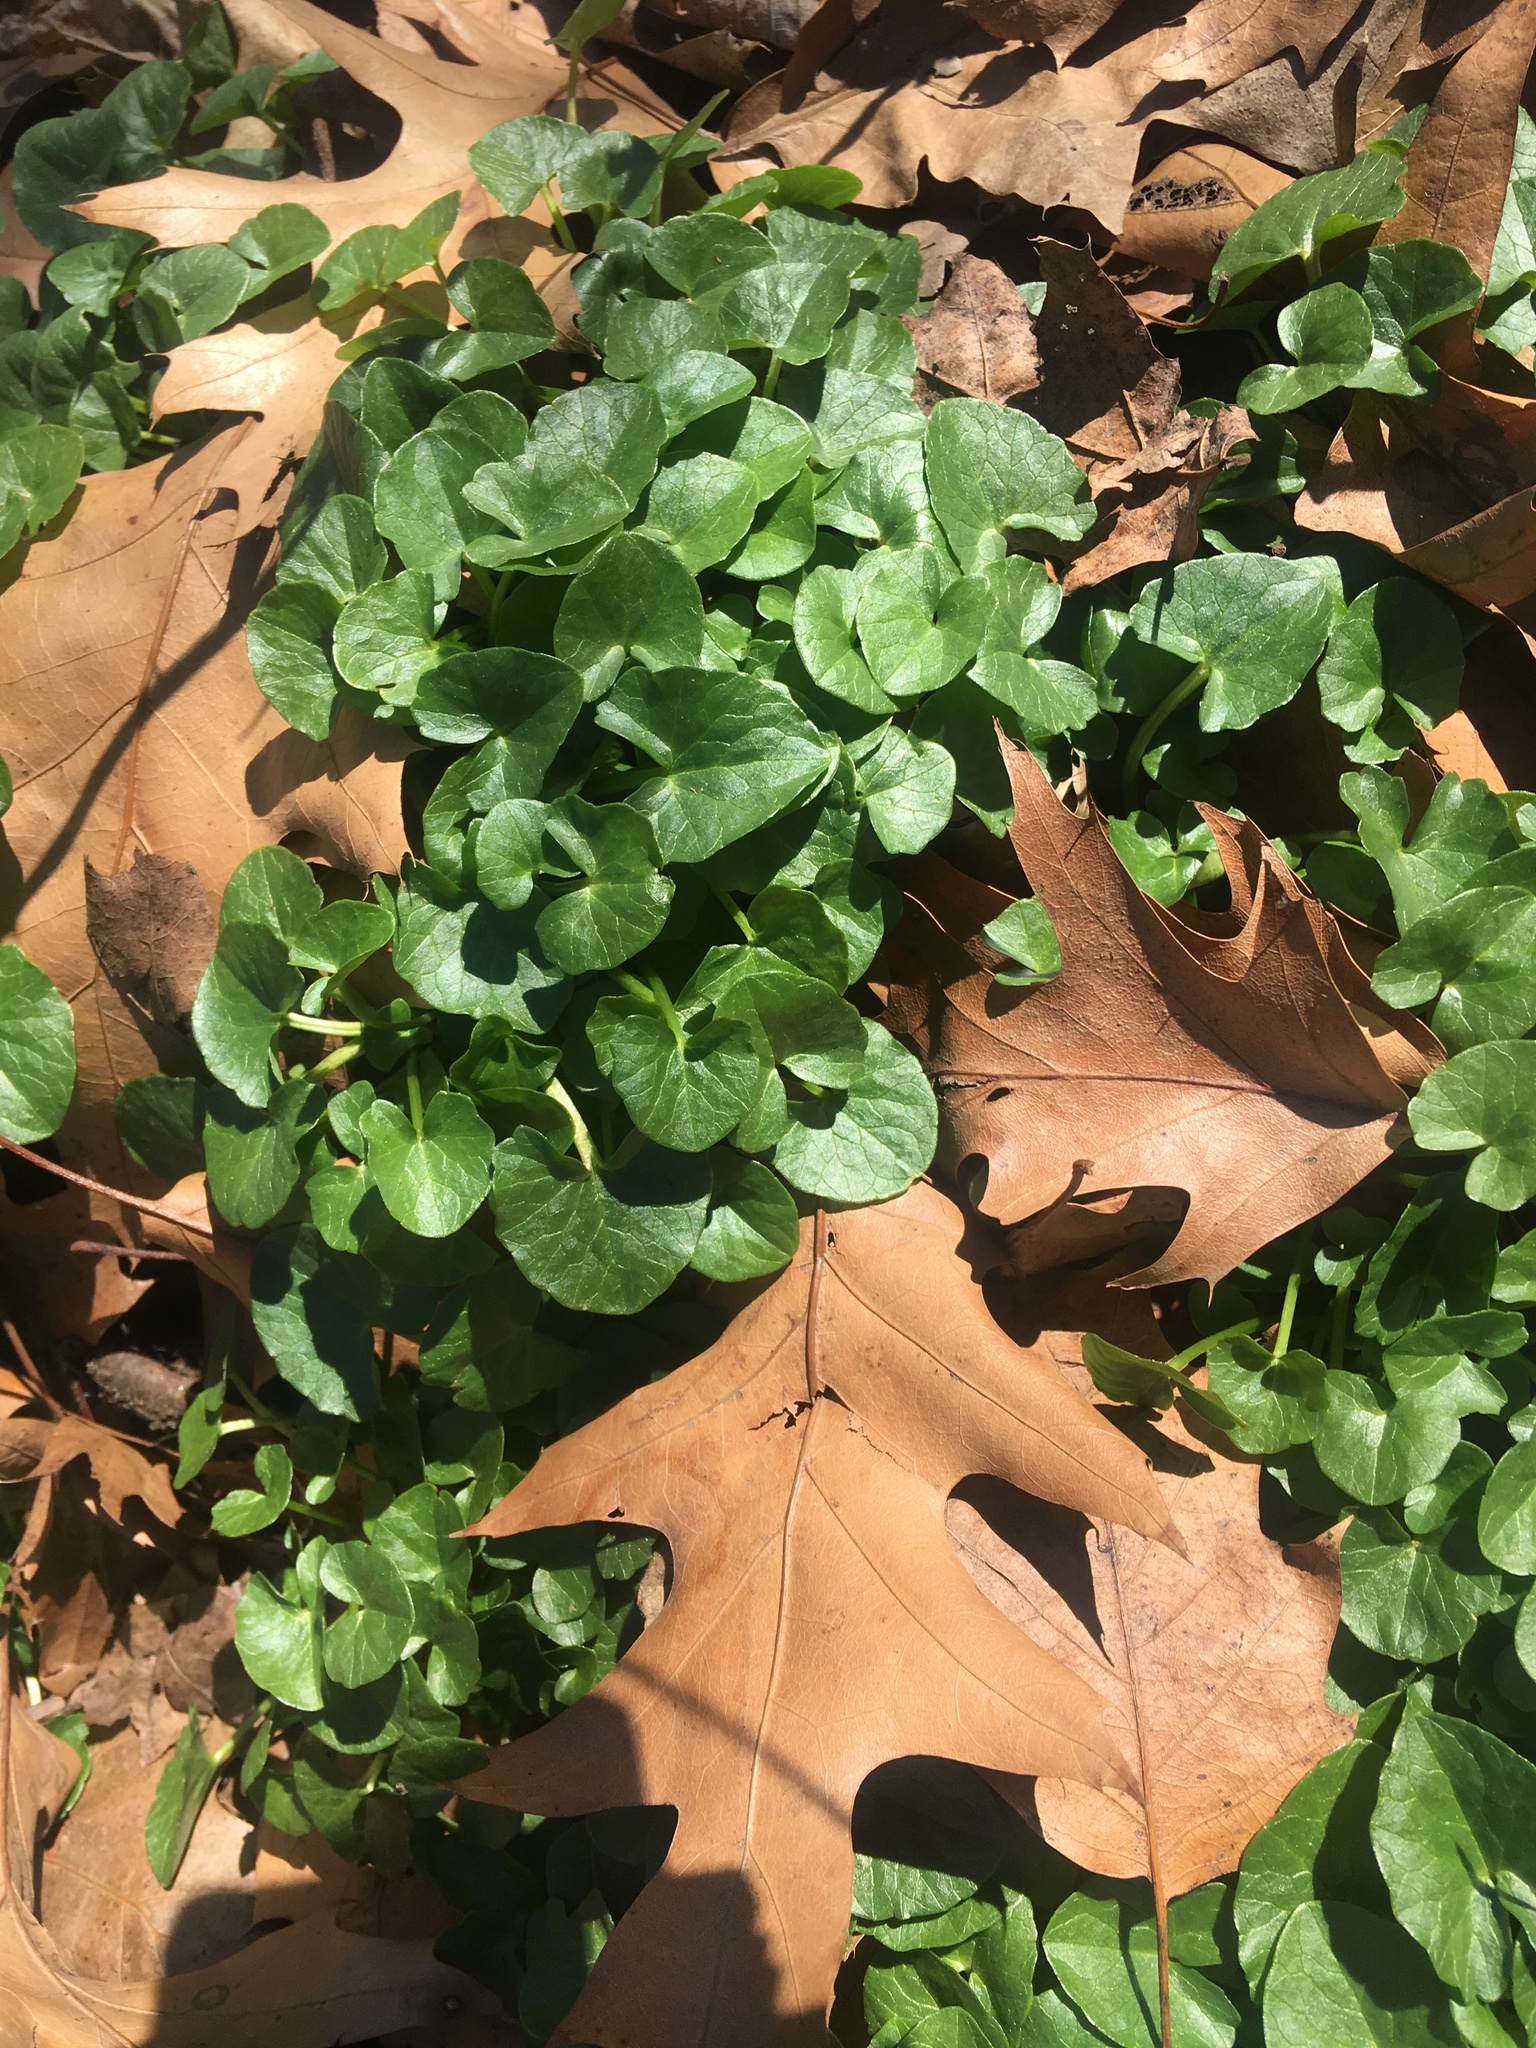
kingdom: Plantae
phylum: Tracheophyta
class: Magnoliopsida
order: Ranunculales
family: Ranunculaceae
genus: Ficaria
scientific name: Ficaria verna
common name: Lesser celandine
